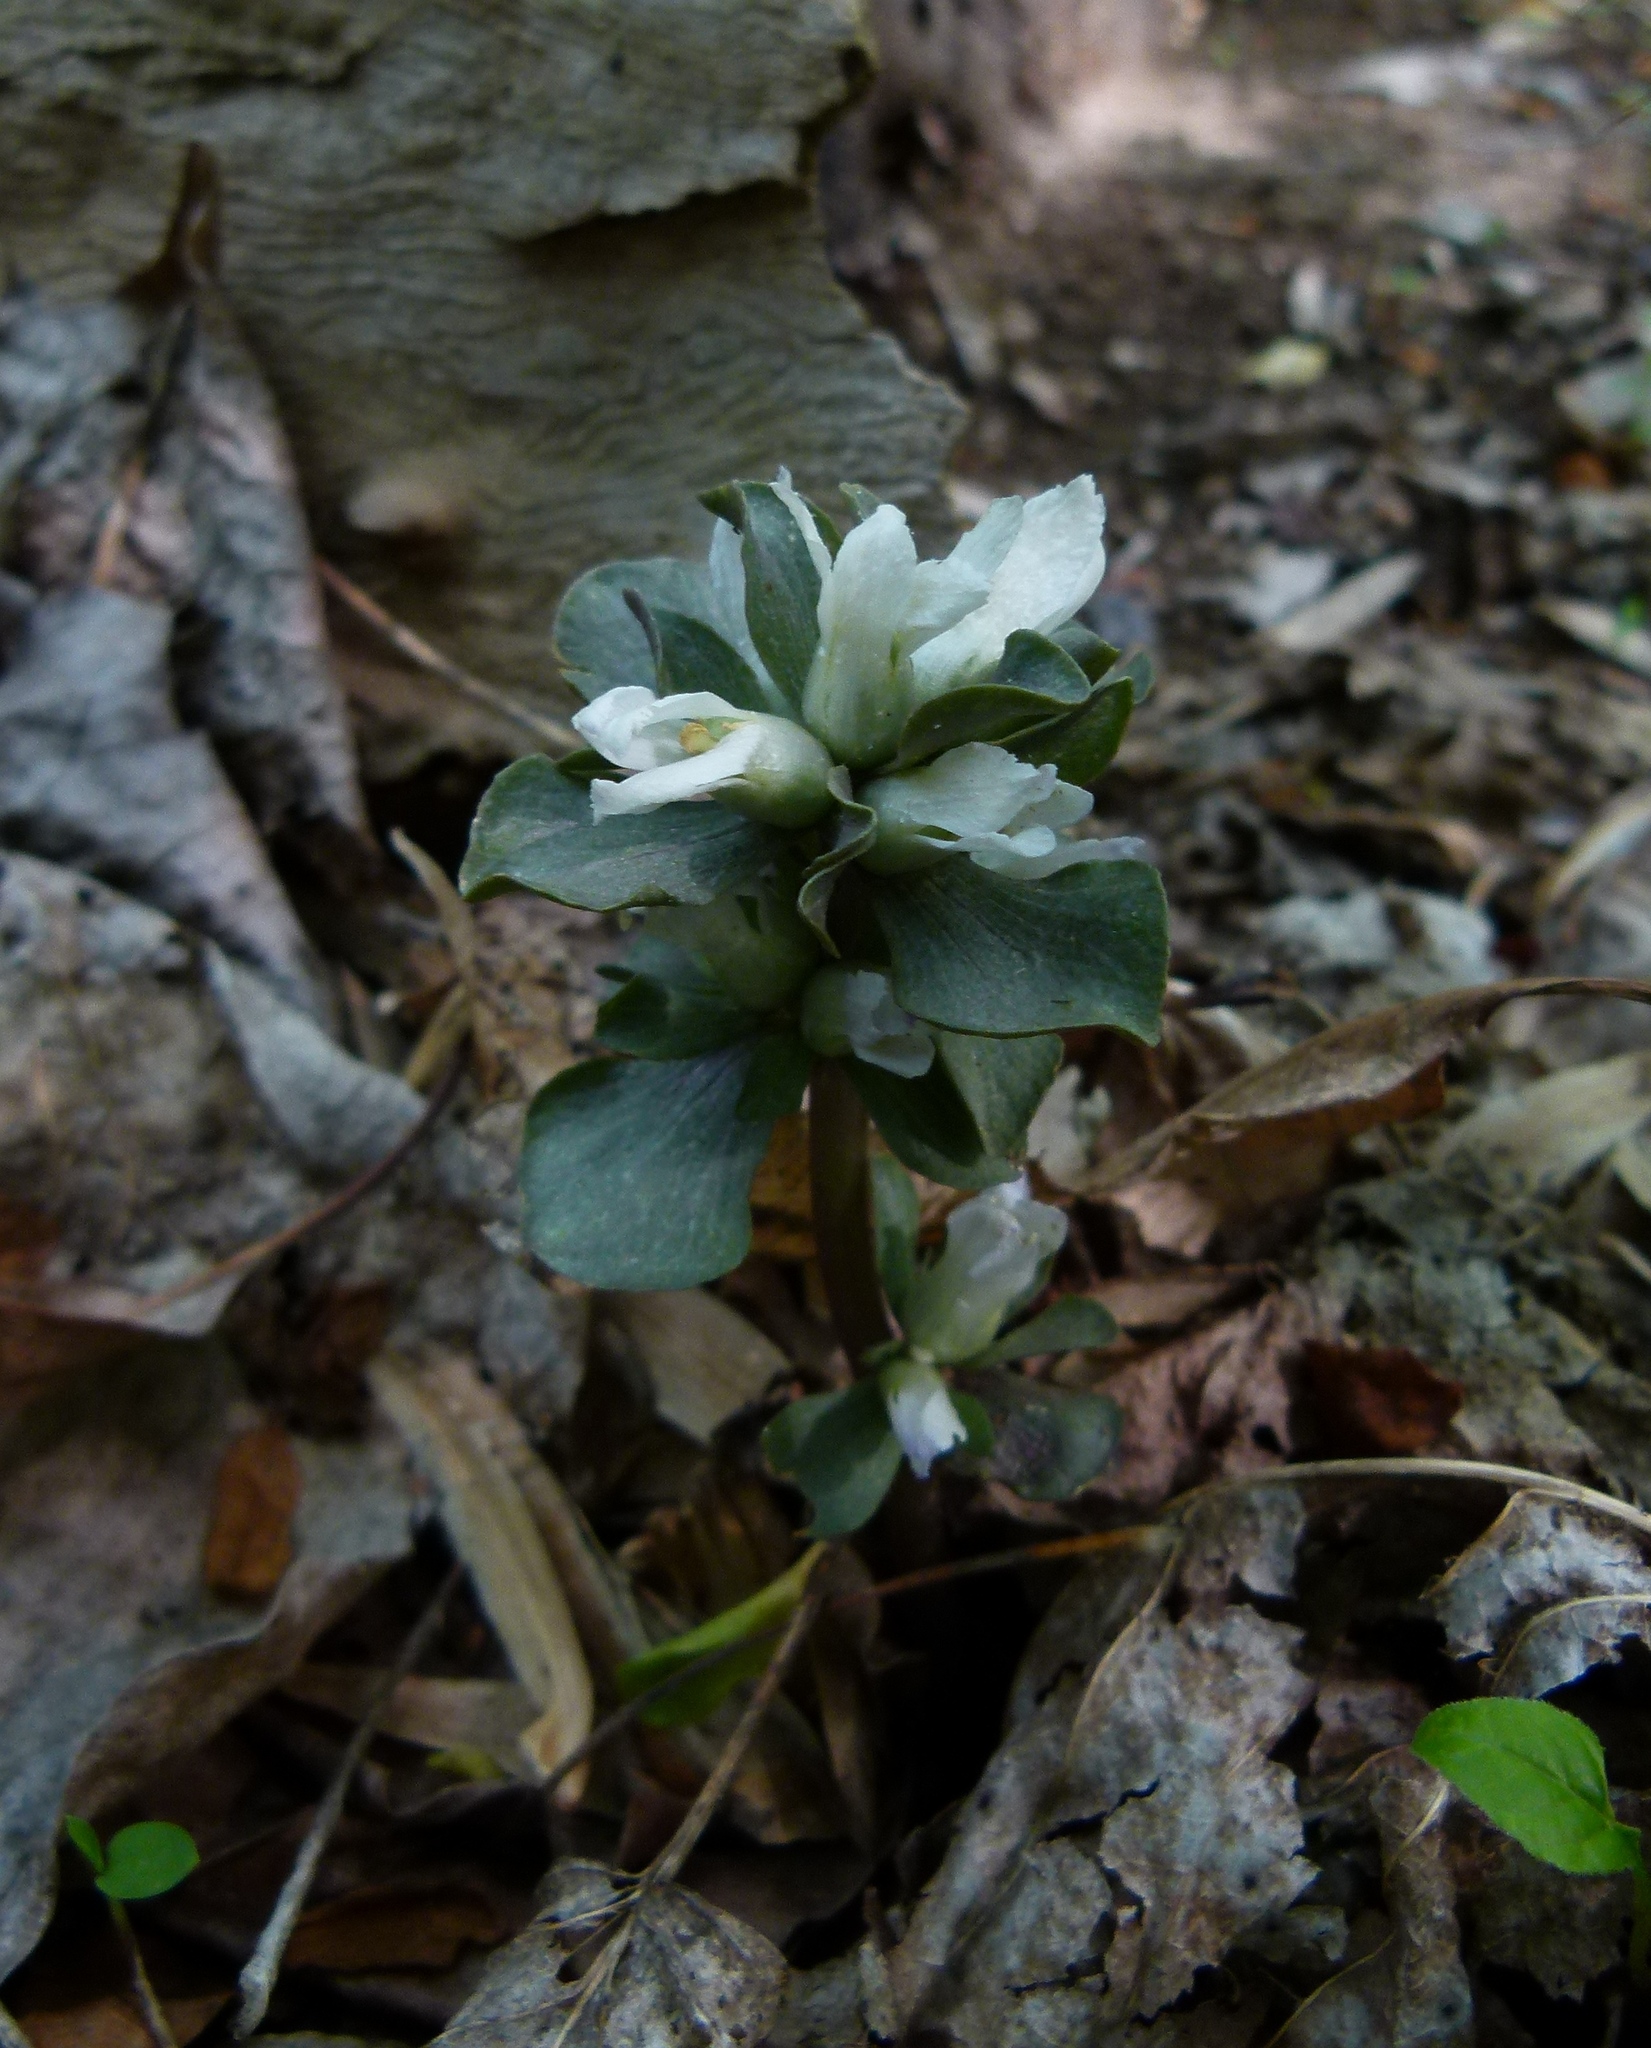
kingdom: Plantae
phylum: Tracheophyta
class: Magnoliopsida
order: Gentianales
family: Gentianaceae
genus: Obolaria
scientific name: Obolaria virginica
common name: Pennywort
